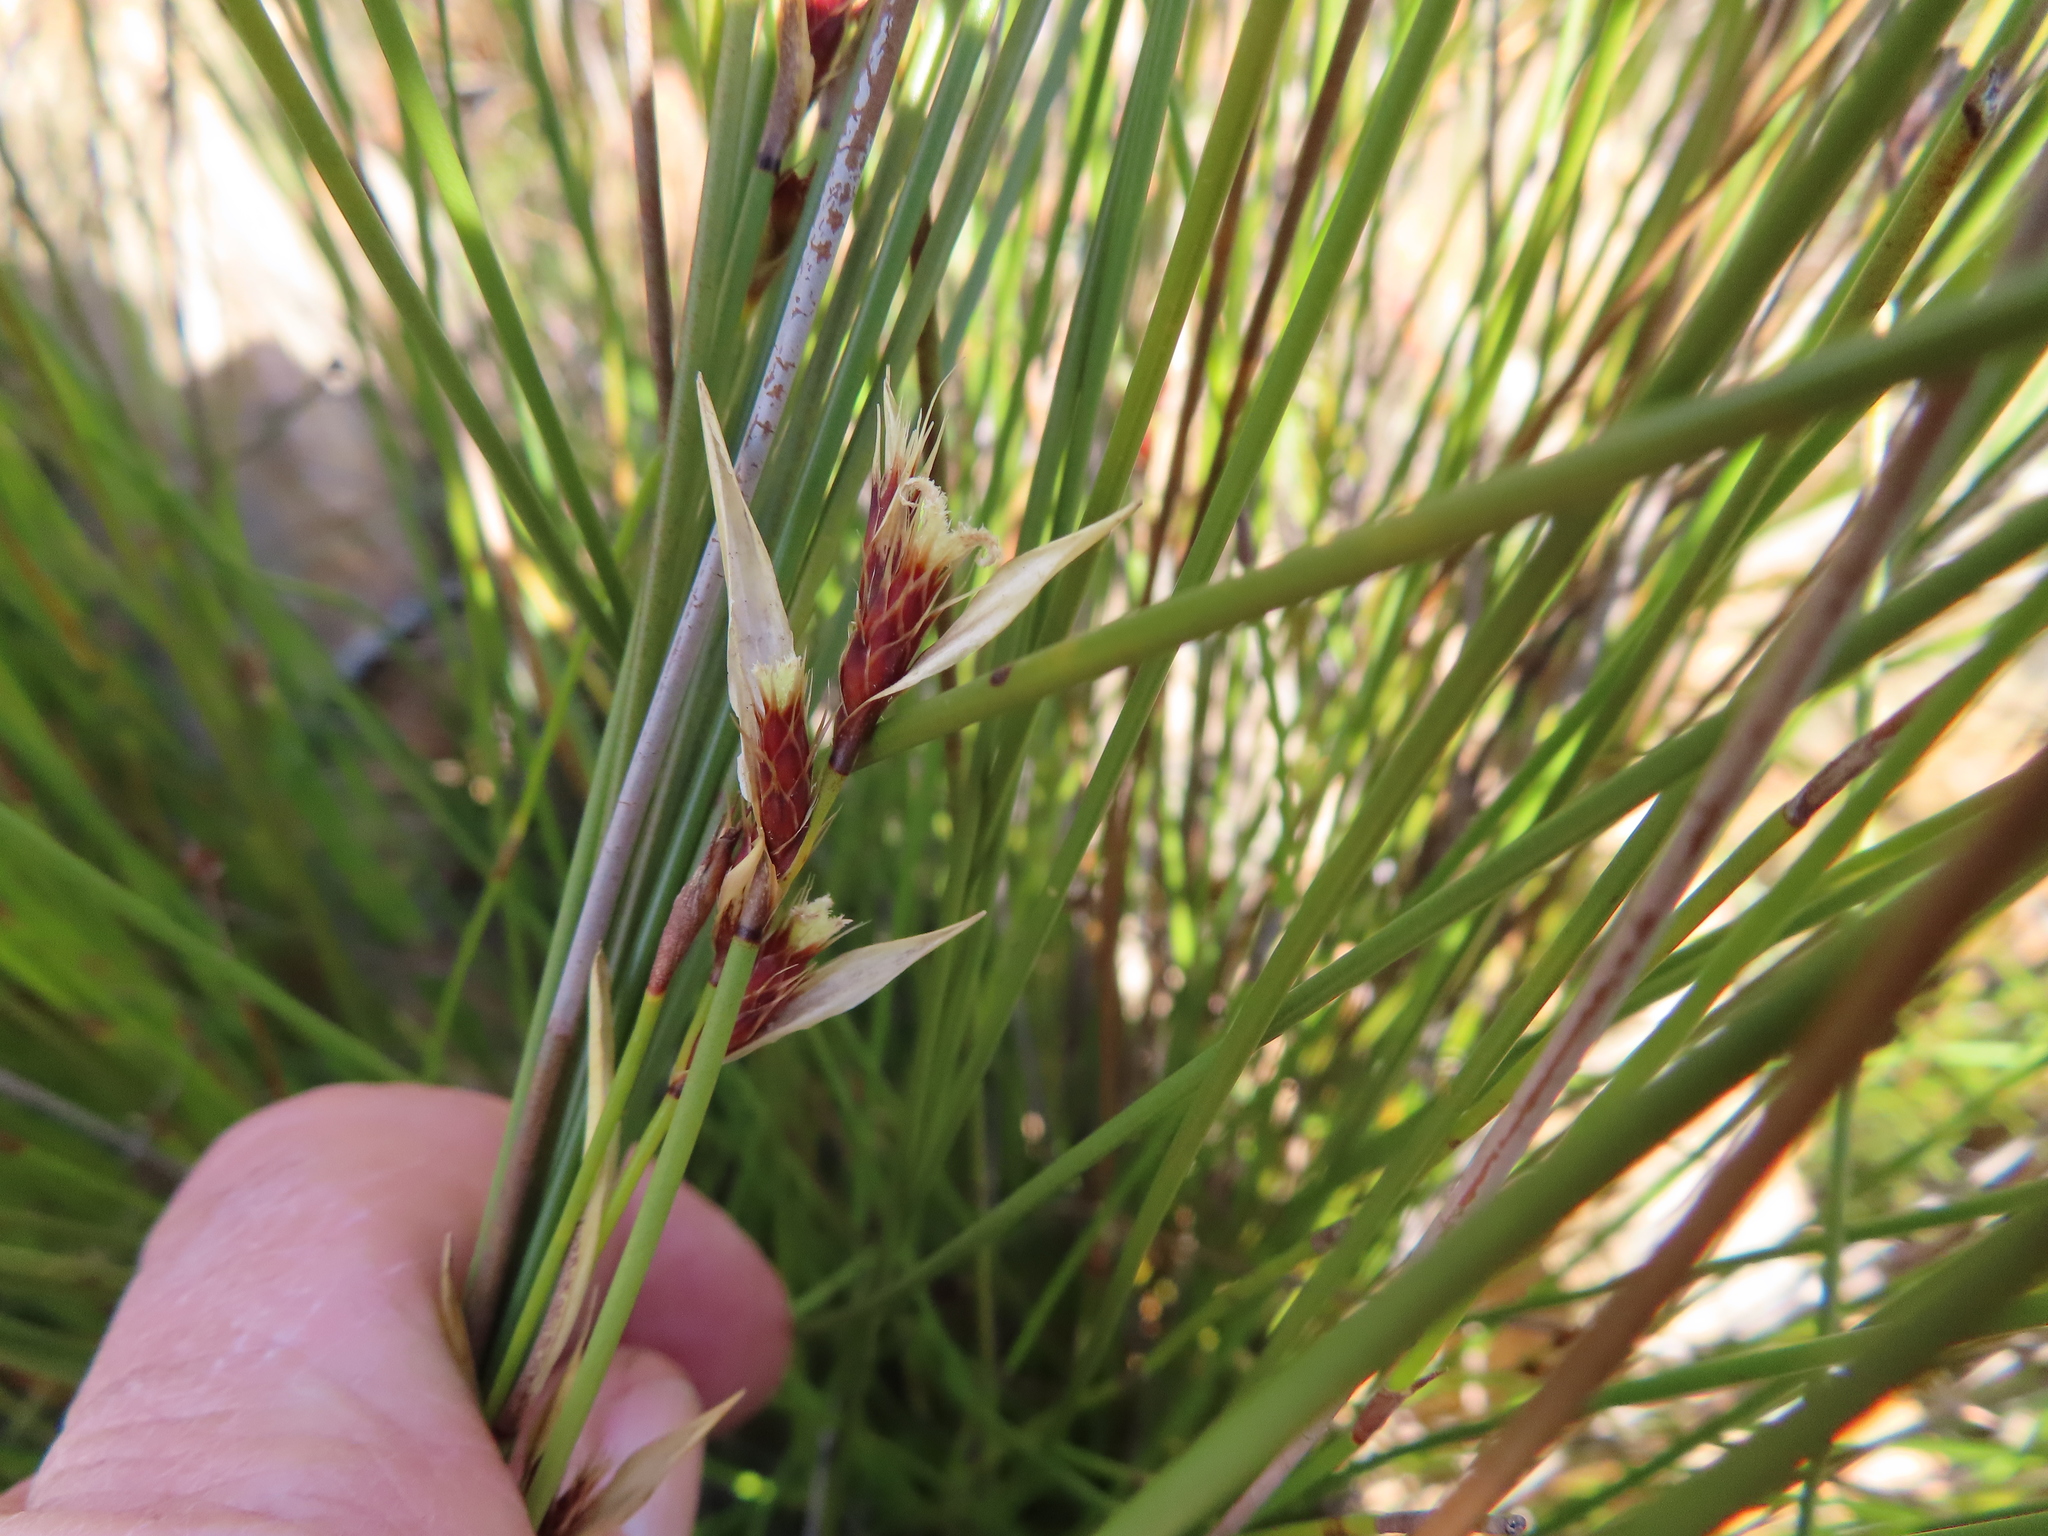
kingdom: Plantae
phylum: Tracheophyta
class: Liliopsida
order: Poales
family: Restionaceae
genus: Hypodiscus
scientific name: Hypodiscus aristatus
